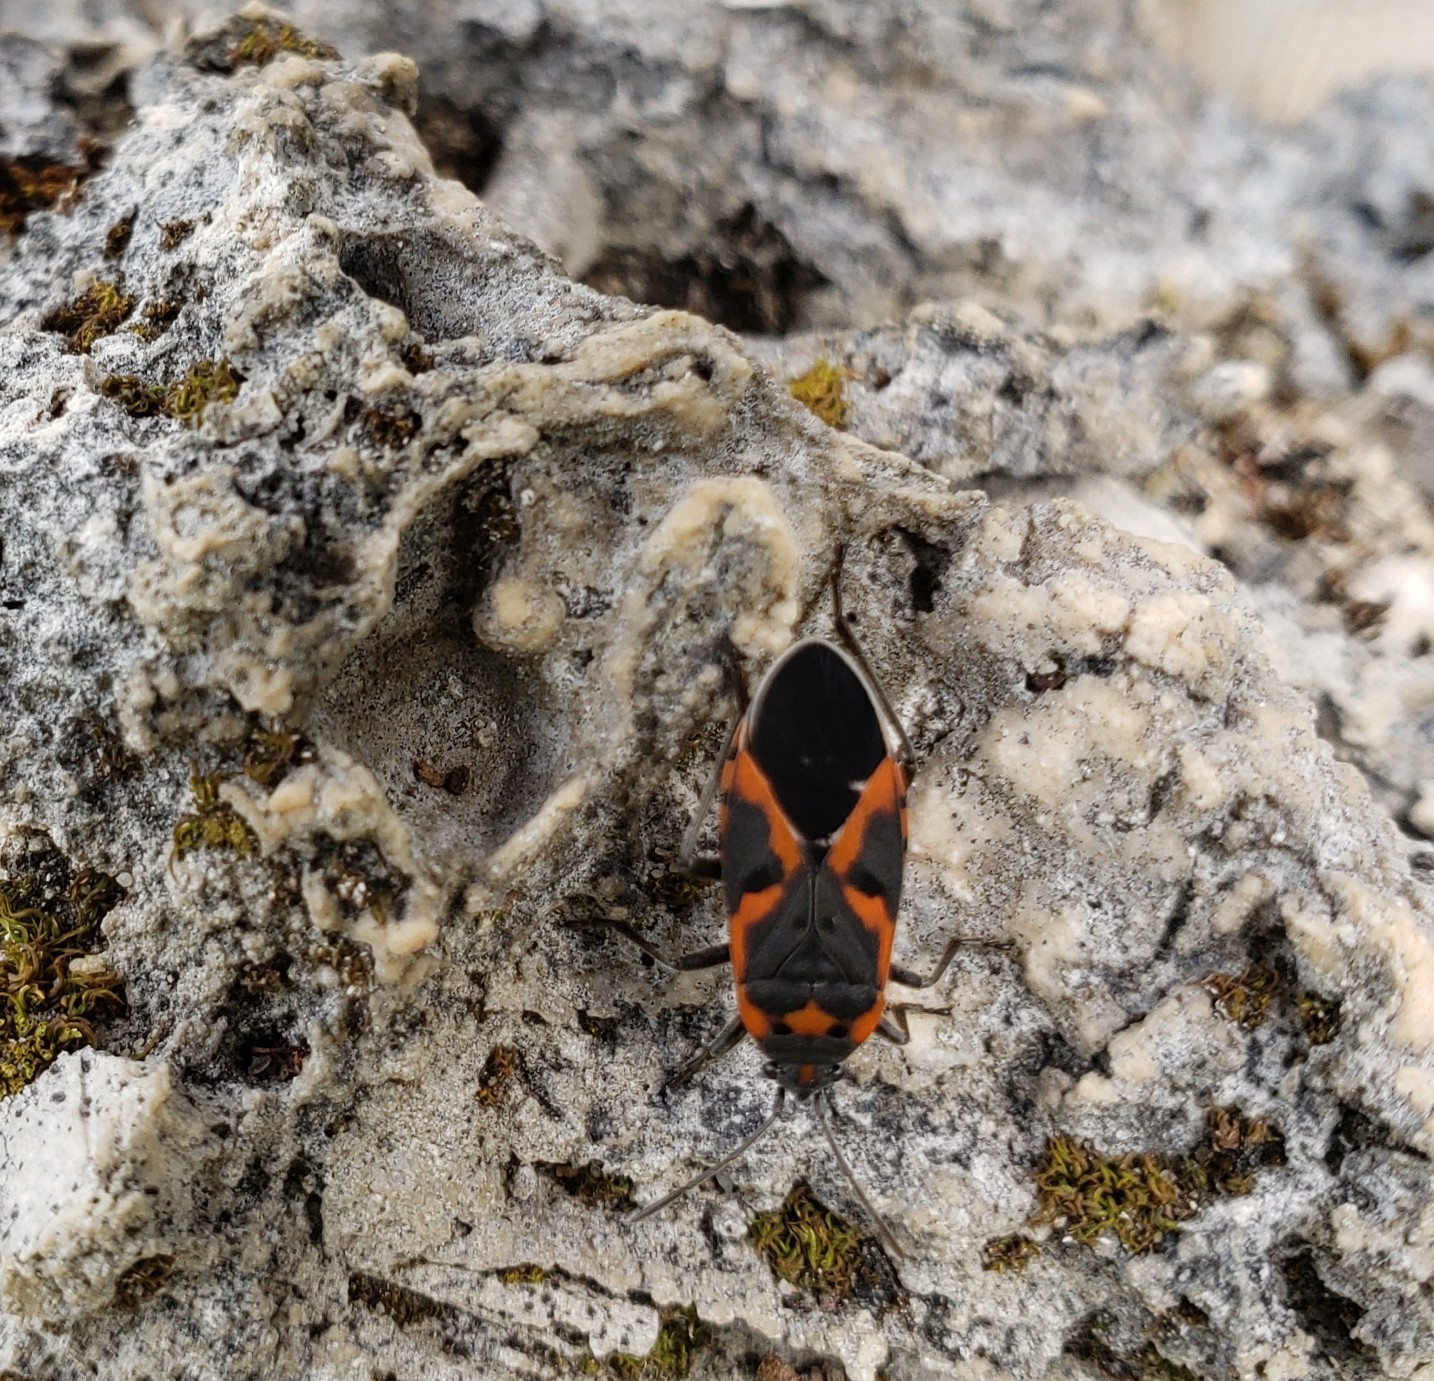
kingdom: Animalia
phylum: Arthropoda
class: Insecta
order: Hemiptera
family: Lygaeidae
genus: Lygaeus
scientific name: Lygaeus kalmii
